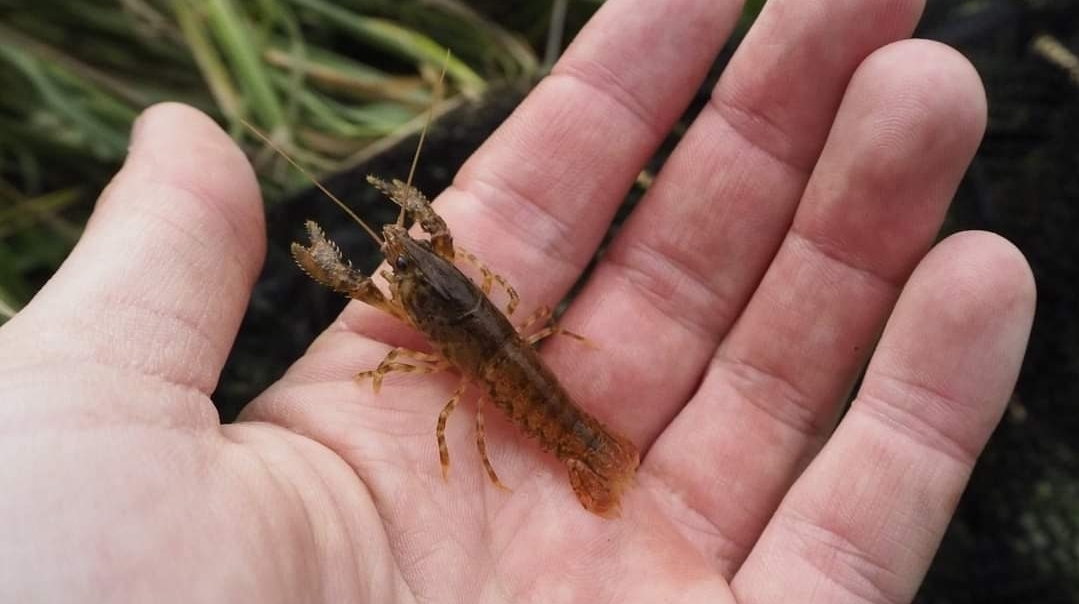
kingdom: Animalia
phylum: Arthropoda
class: Malacostraca
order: Decapoda
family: Parastacidae
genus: Paranephrops
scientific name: Paranephrops zealandicus
